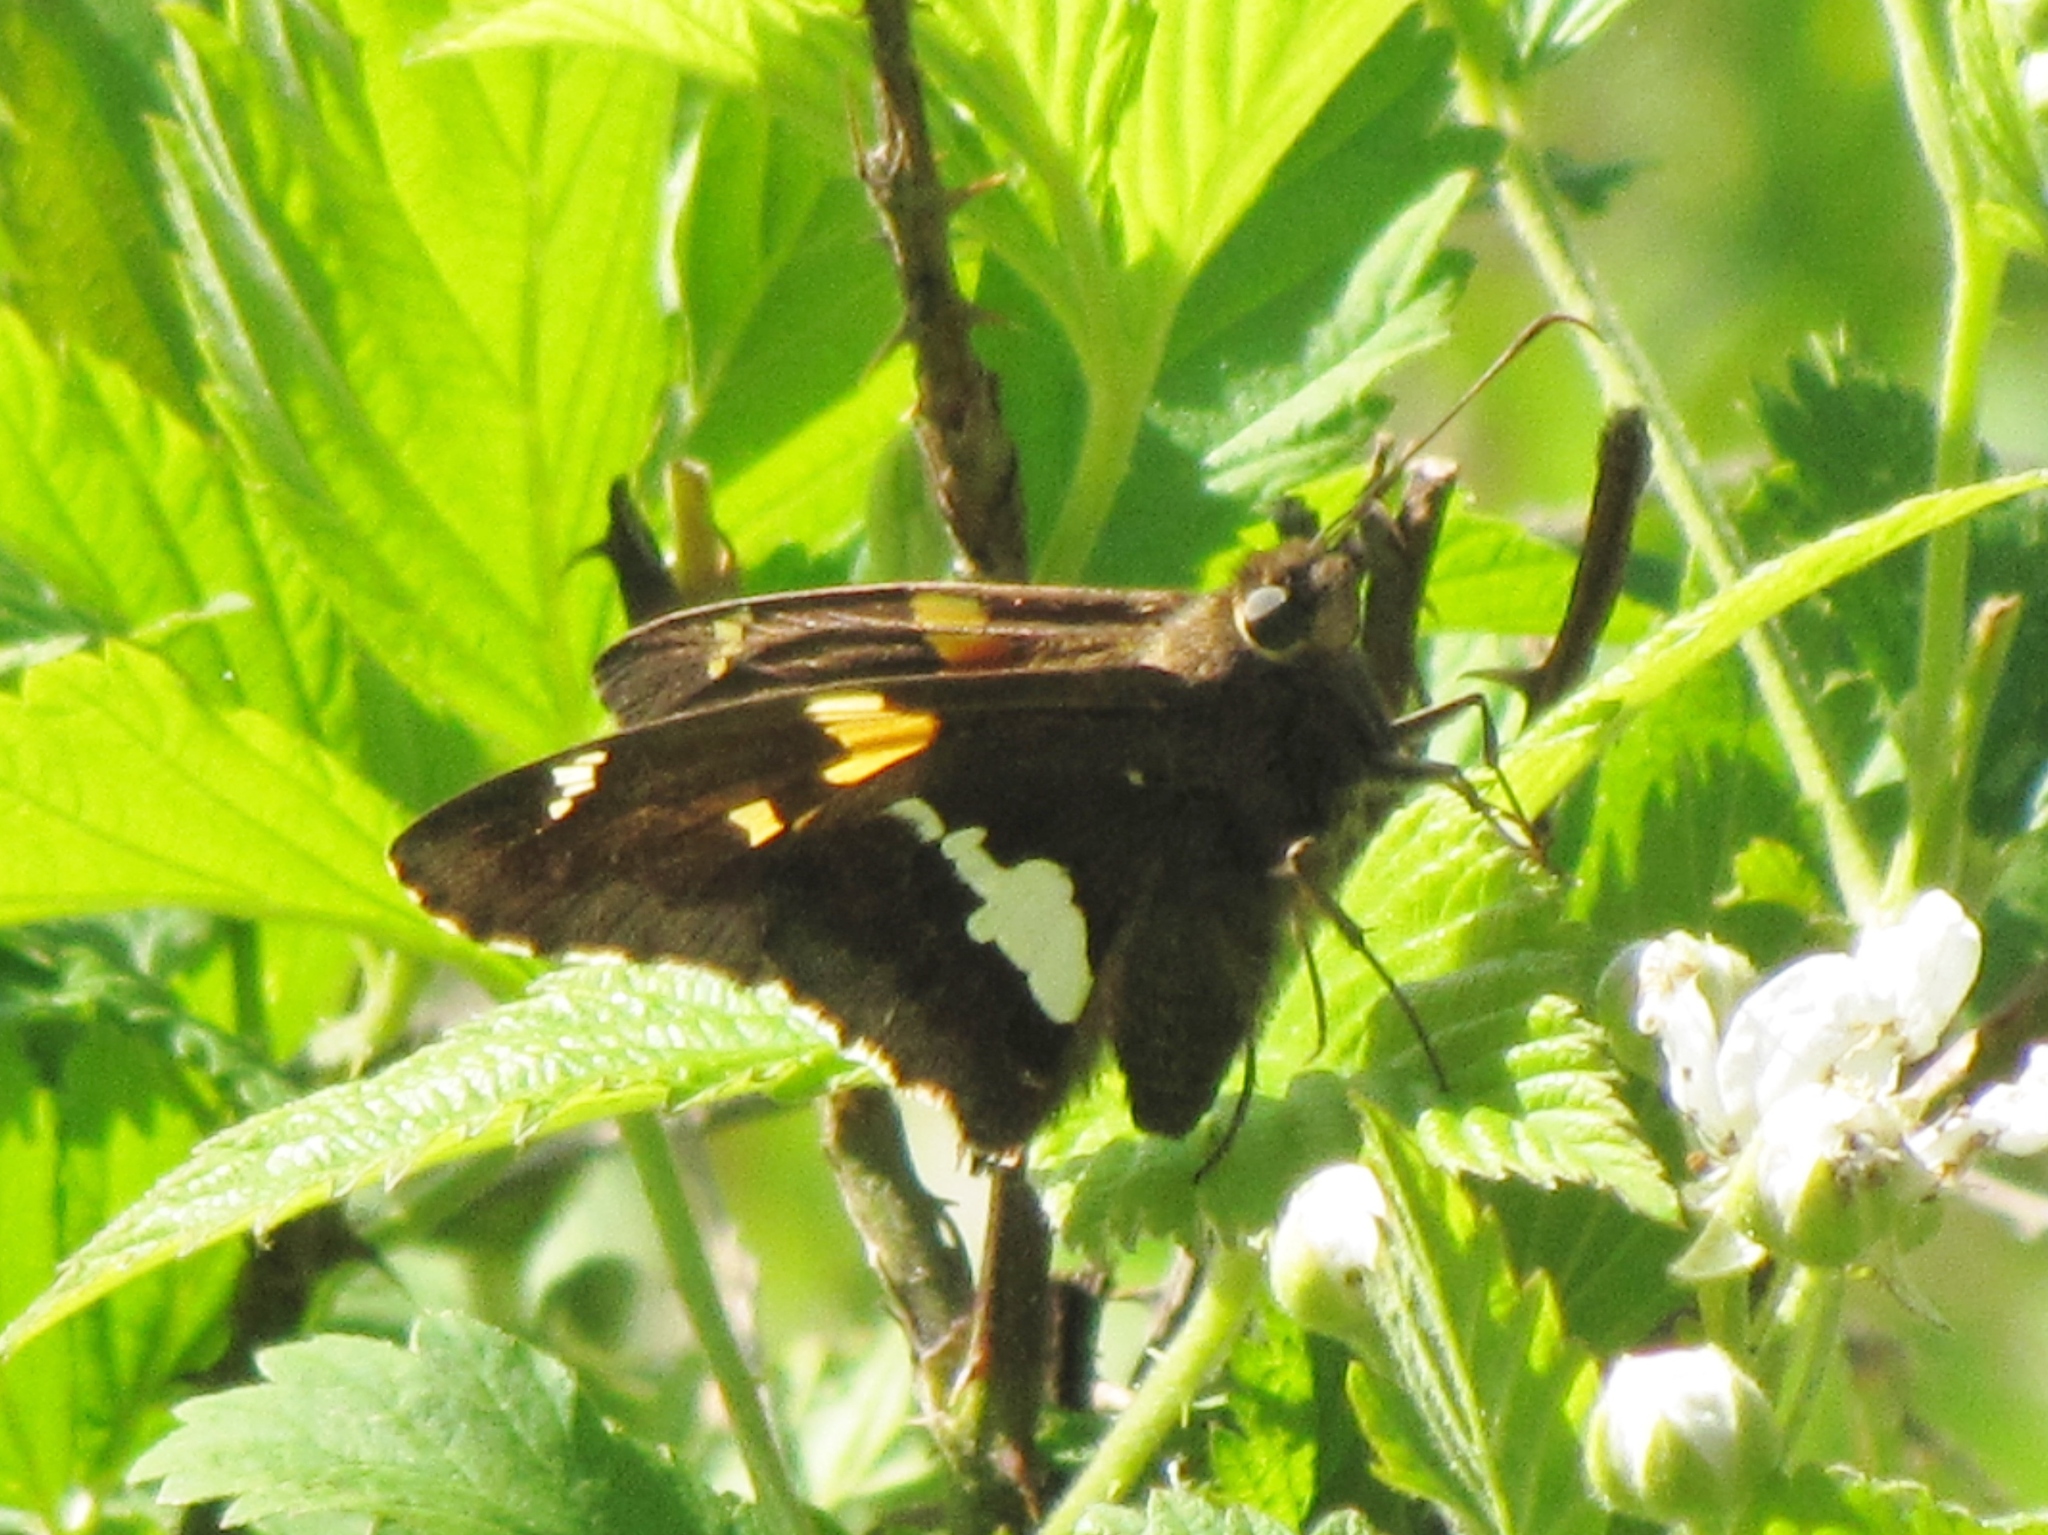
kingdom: Animalia
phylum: Arthropoda
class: Insecta
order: Lepidoptera
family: Hesperiidae
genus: Epargyreus
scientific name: Epargyreus clarus
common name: Silver-spotted skipper
